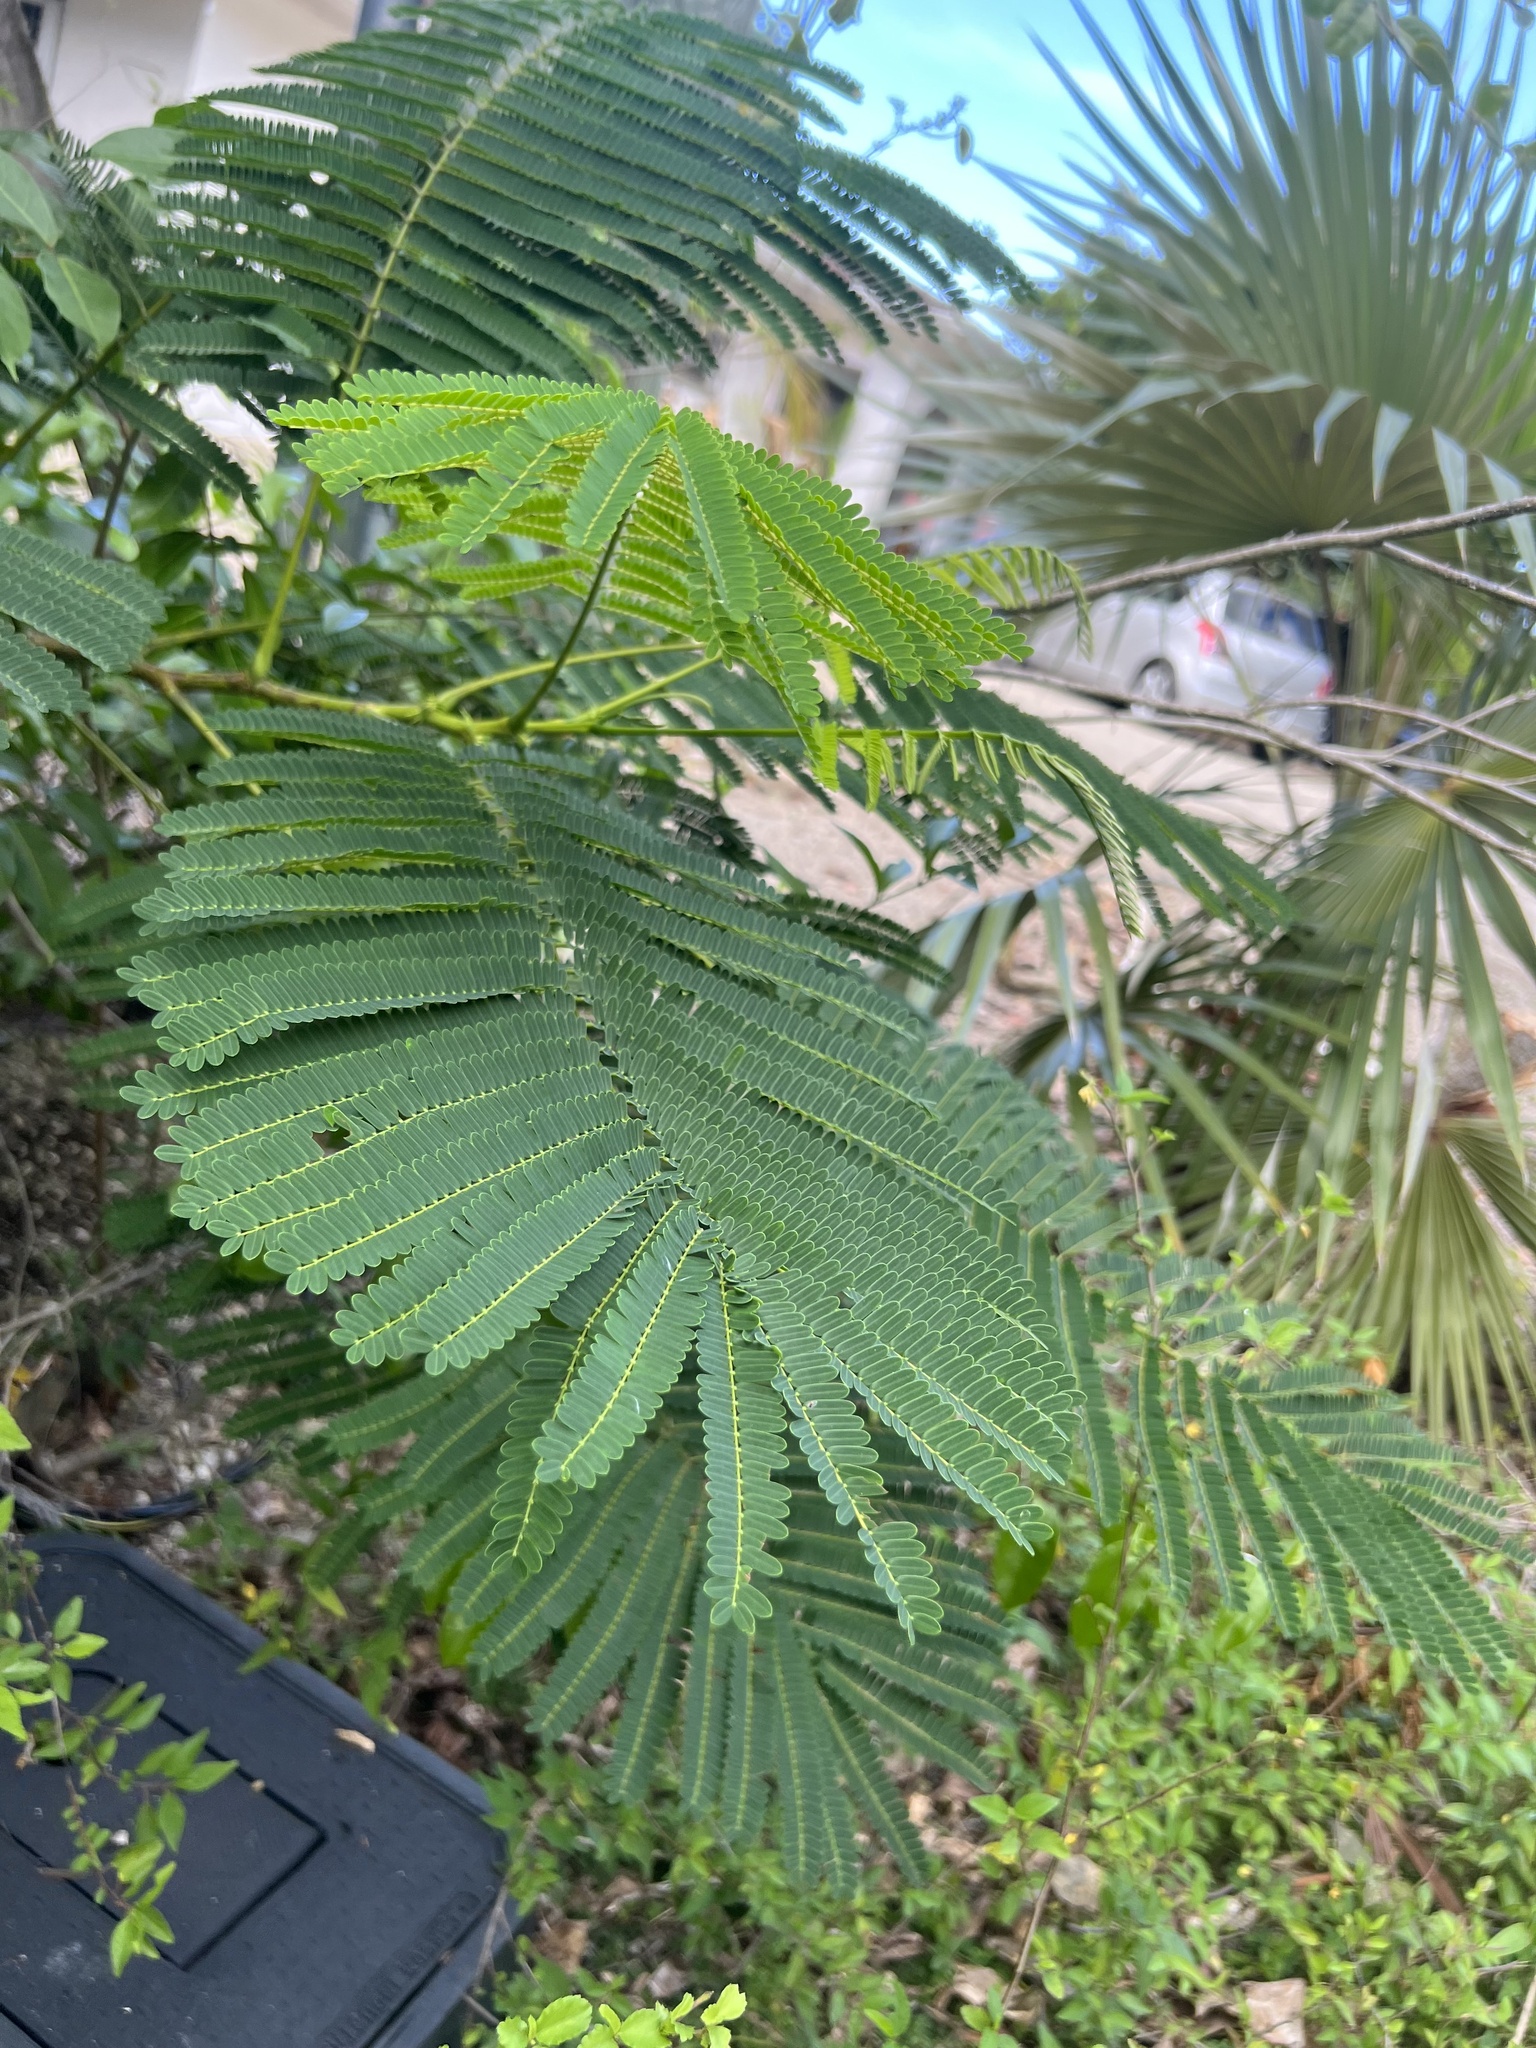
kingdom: Plantae
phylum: Tracheophyta
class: Magnoliopsida
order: Fabales
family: Fabaceae
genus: Delonix
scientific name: Delonix regia
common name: Royal poinciana
